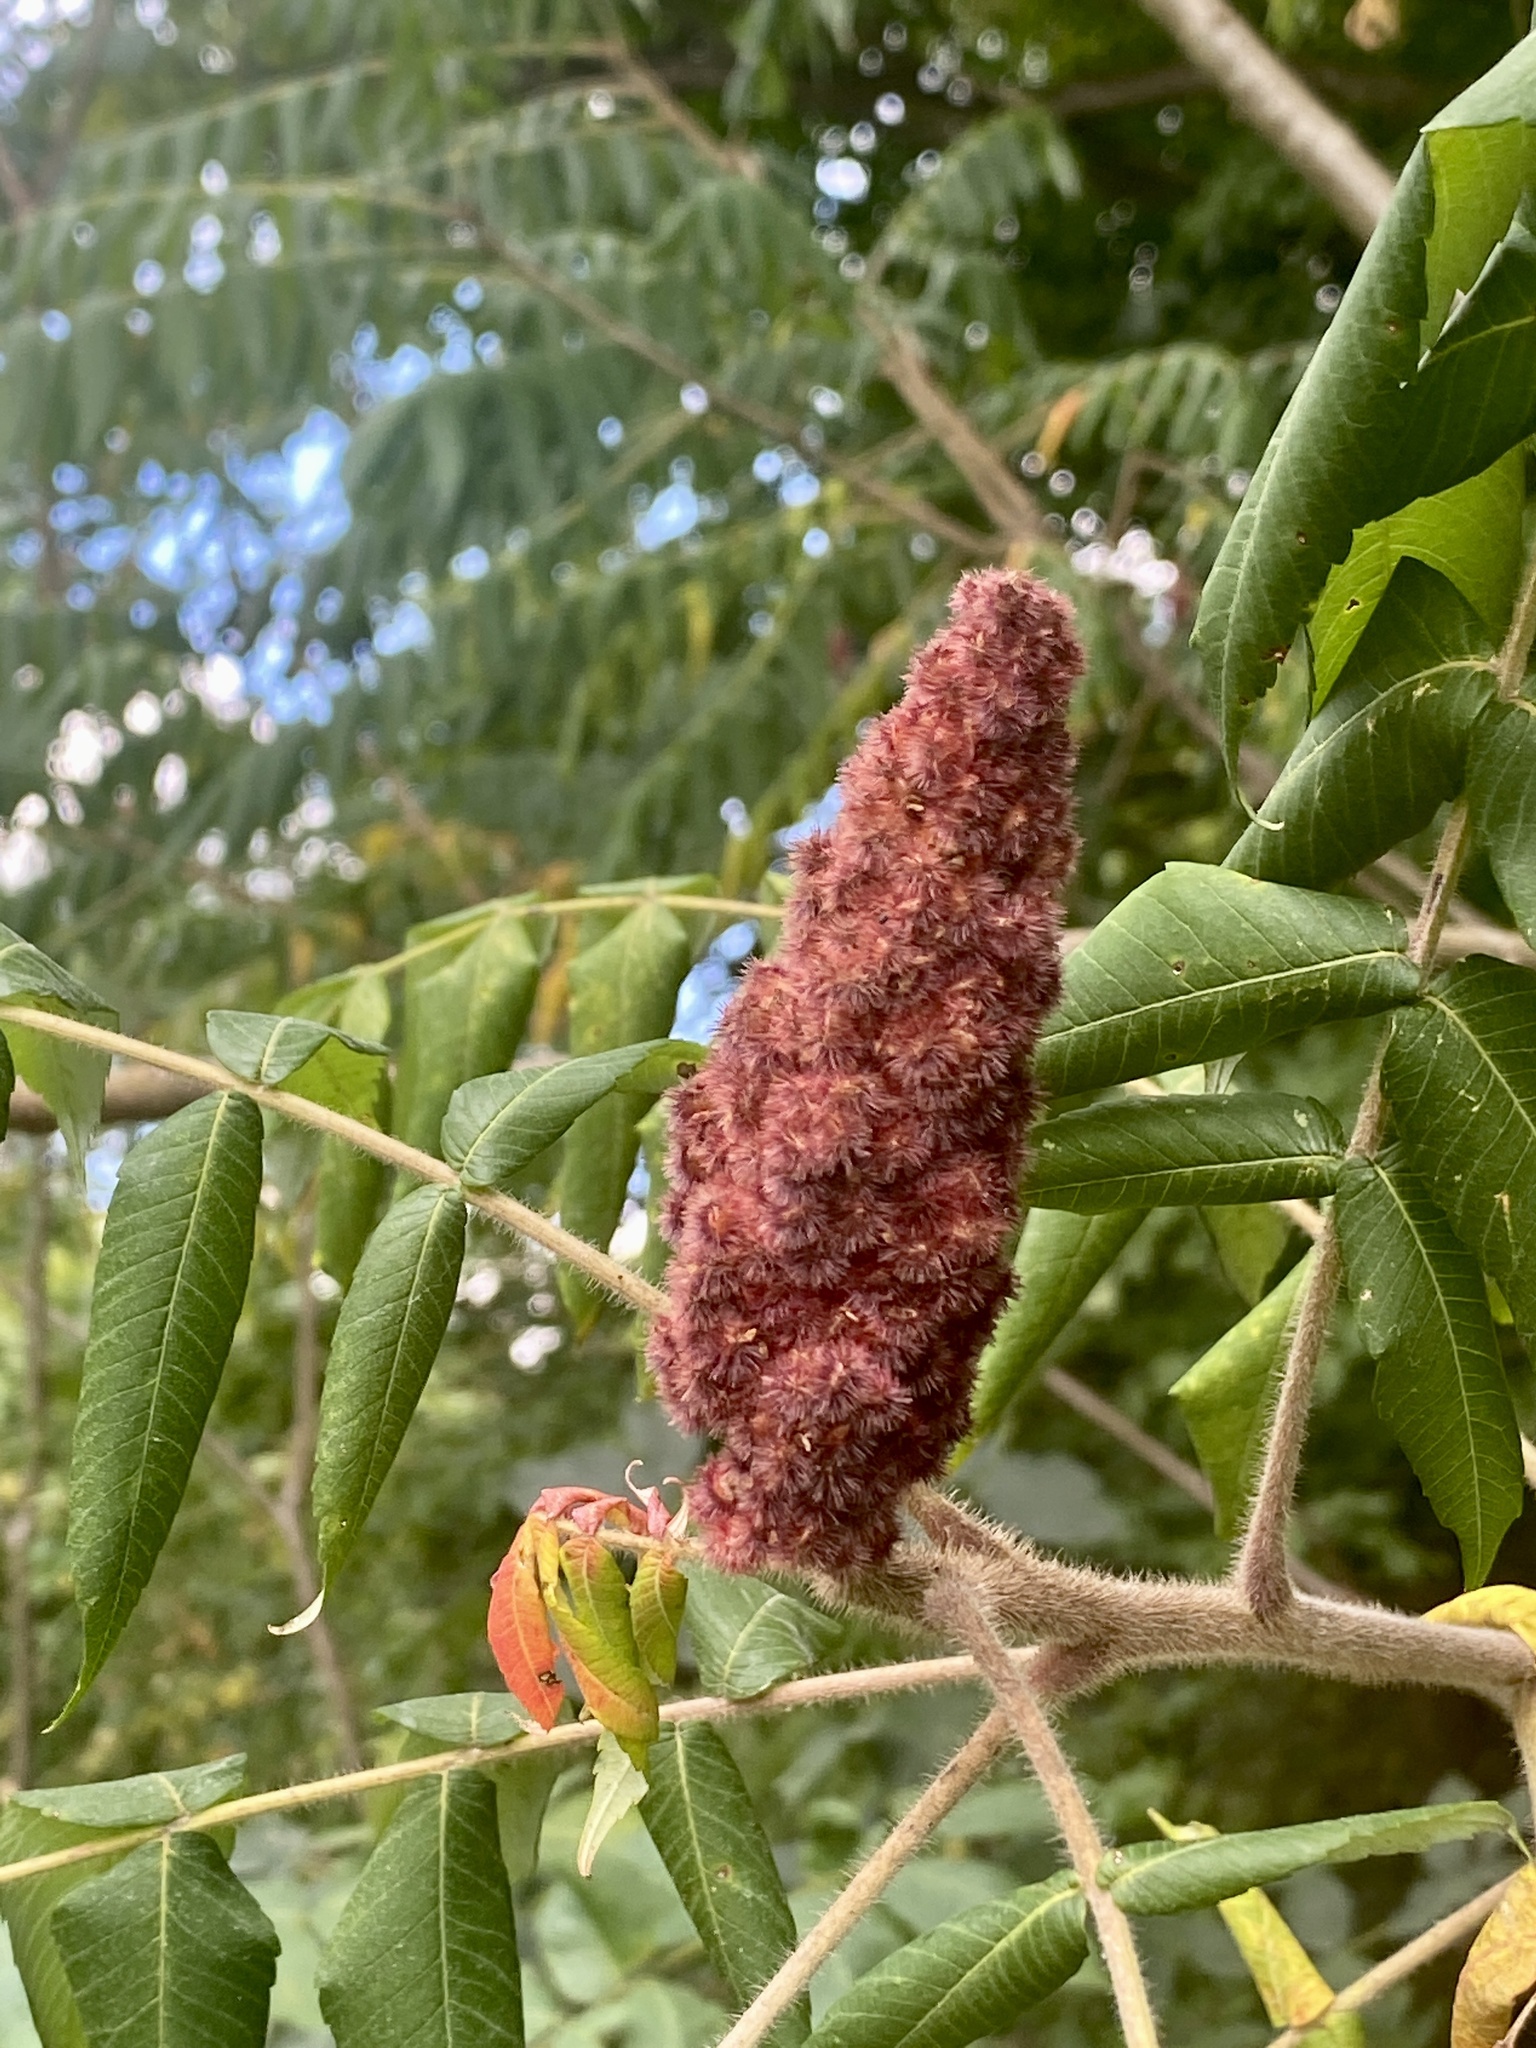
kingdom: Plantae
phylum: Tracheophyta
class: Magnoliopsida
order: Sapindales
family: Anacardiaceae
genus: Rhus
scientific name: Rhus typhina
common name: Staghorn sumac
